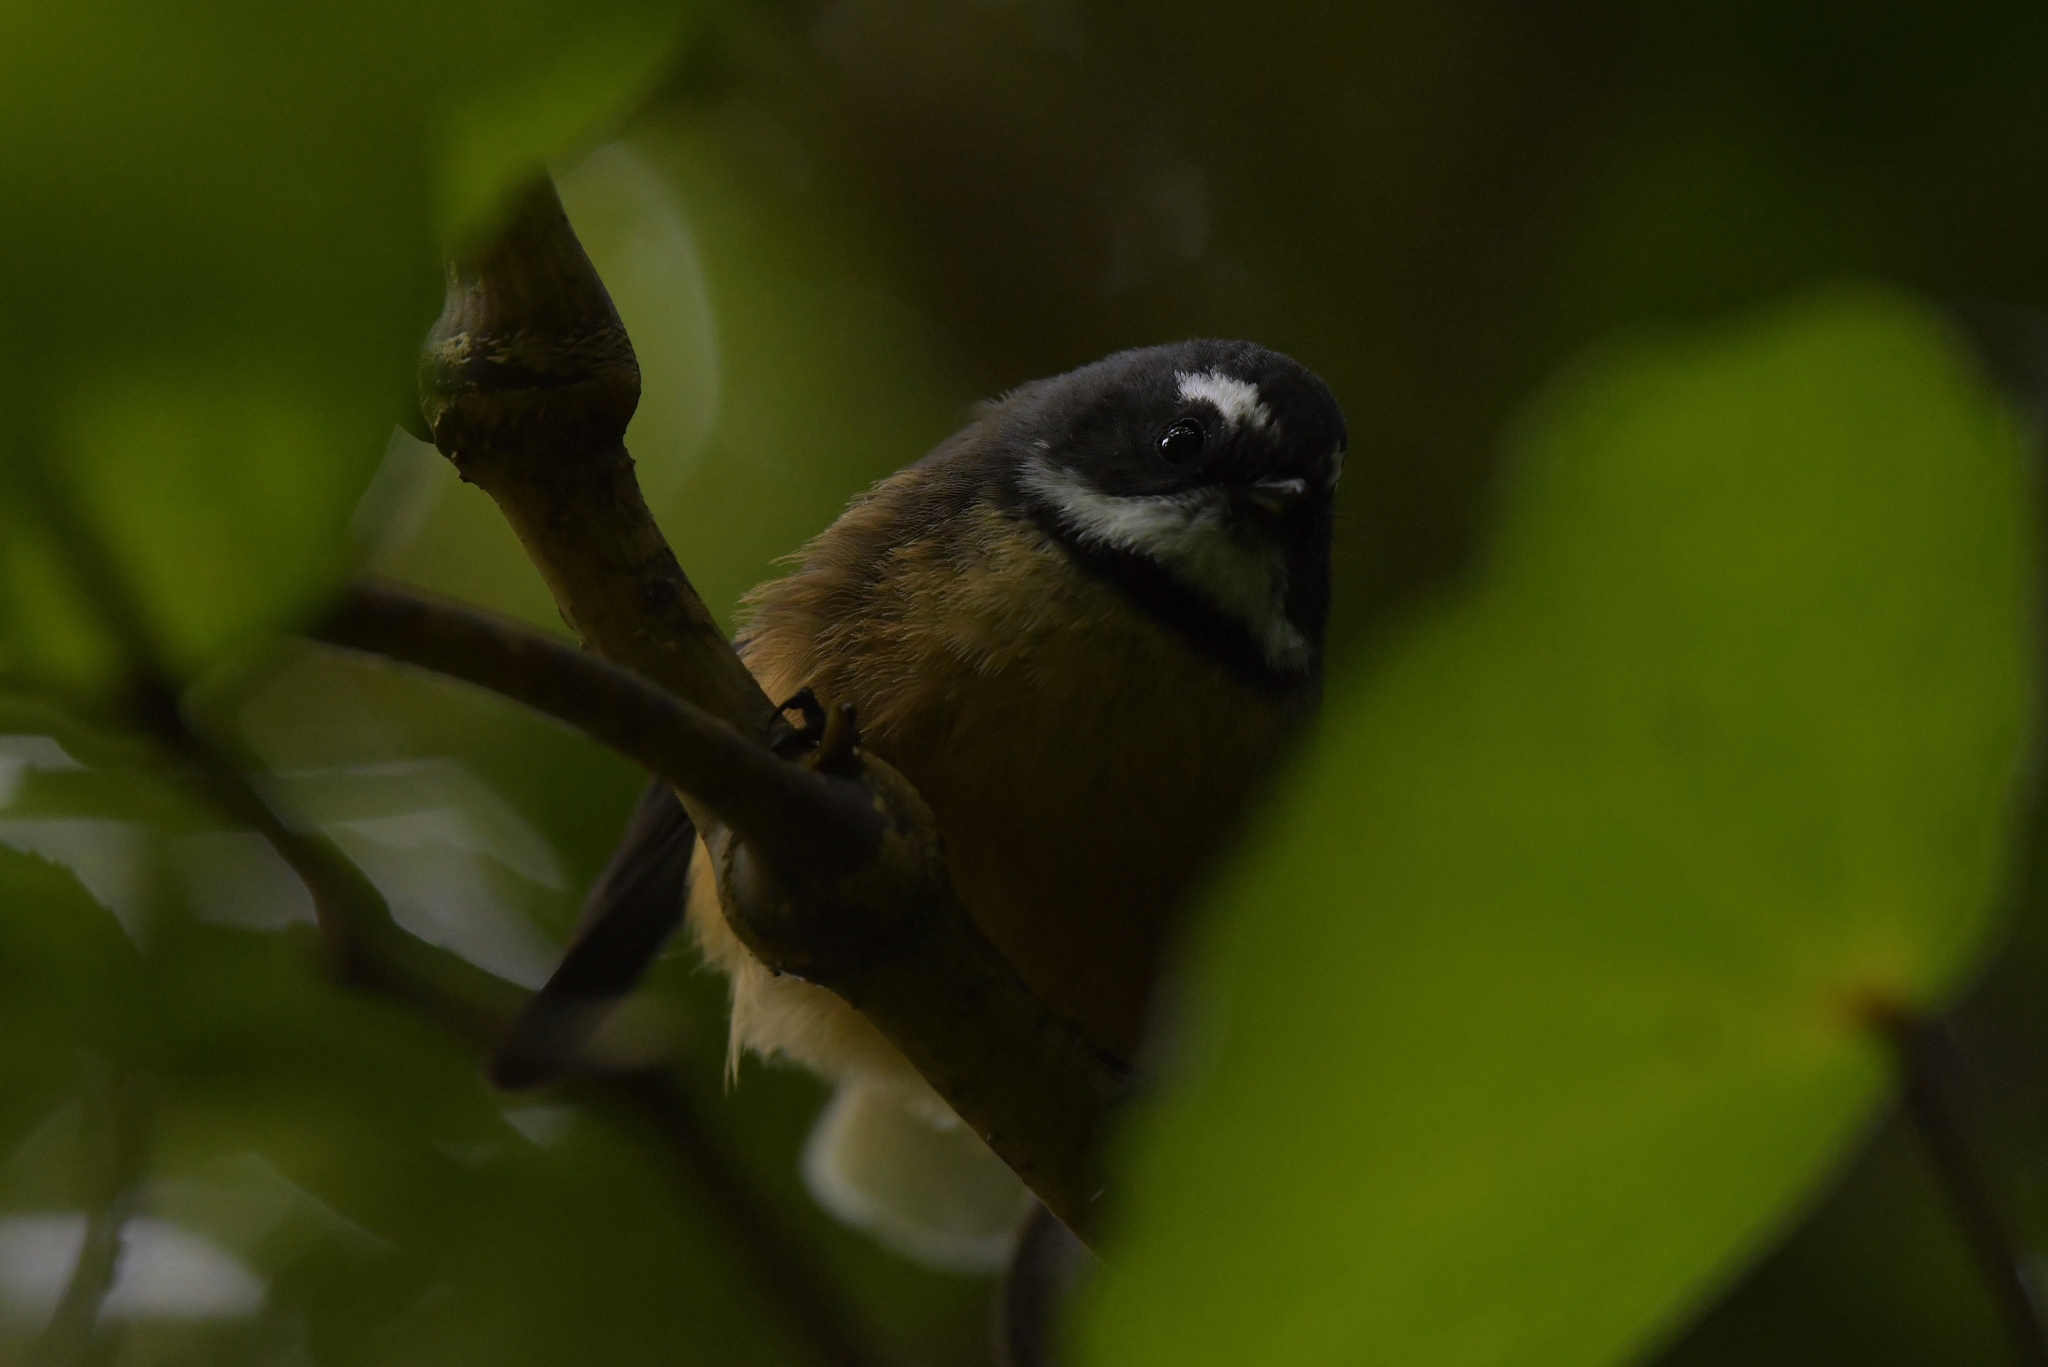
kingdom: Animalia
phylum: Chordata
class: Aves
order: Passeriformes
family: Rhipiduridae
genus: Rhipidura
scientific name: Rhipidura fuliginosa
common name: New zealand fantail
